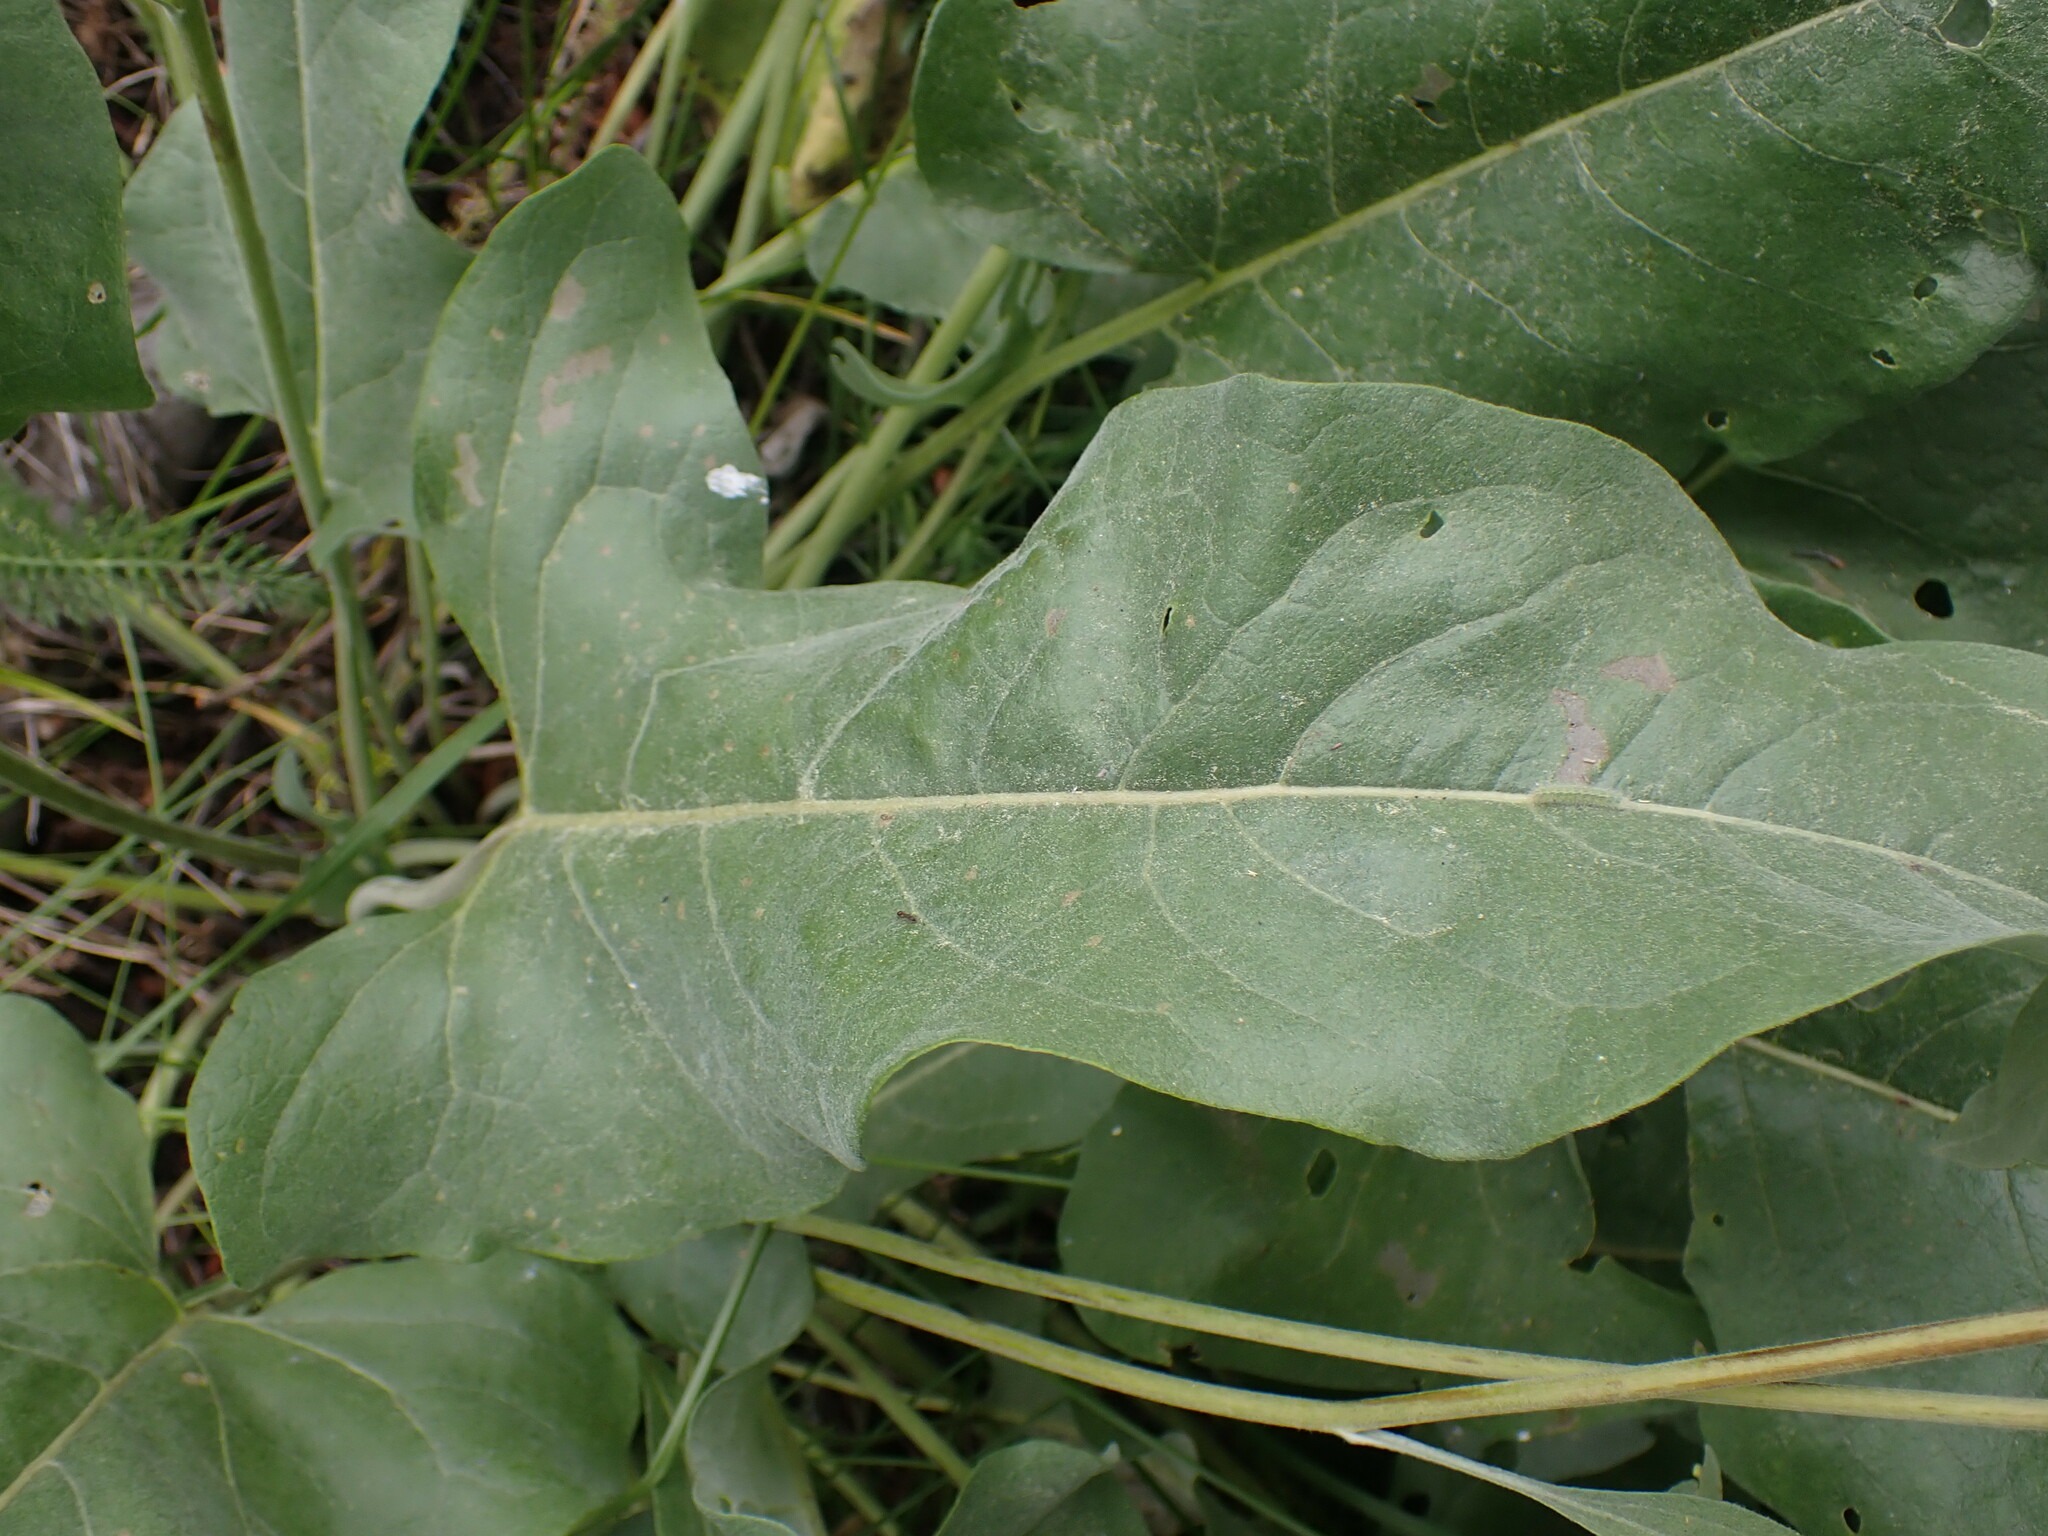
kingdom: Plantae
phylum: Tracheophyta
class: Magnoliopsida
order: Asterales
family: Asteraceae
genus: Wyethia
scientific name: Wyethia sagittata
